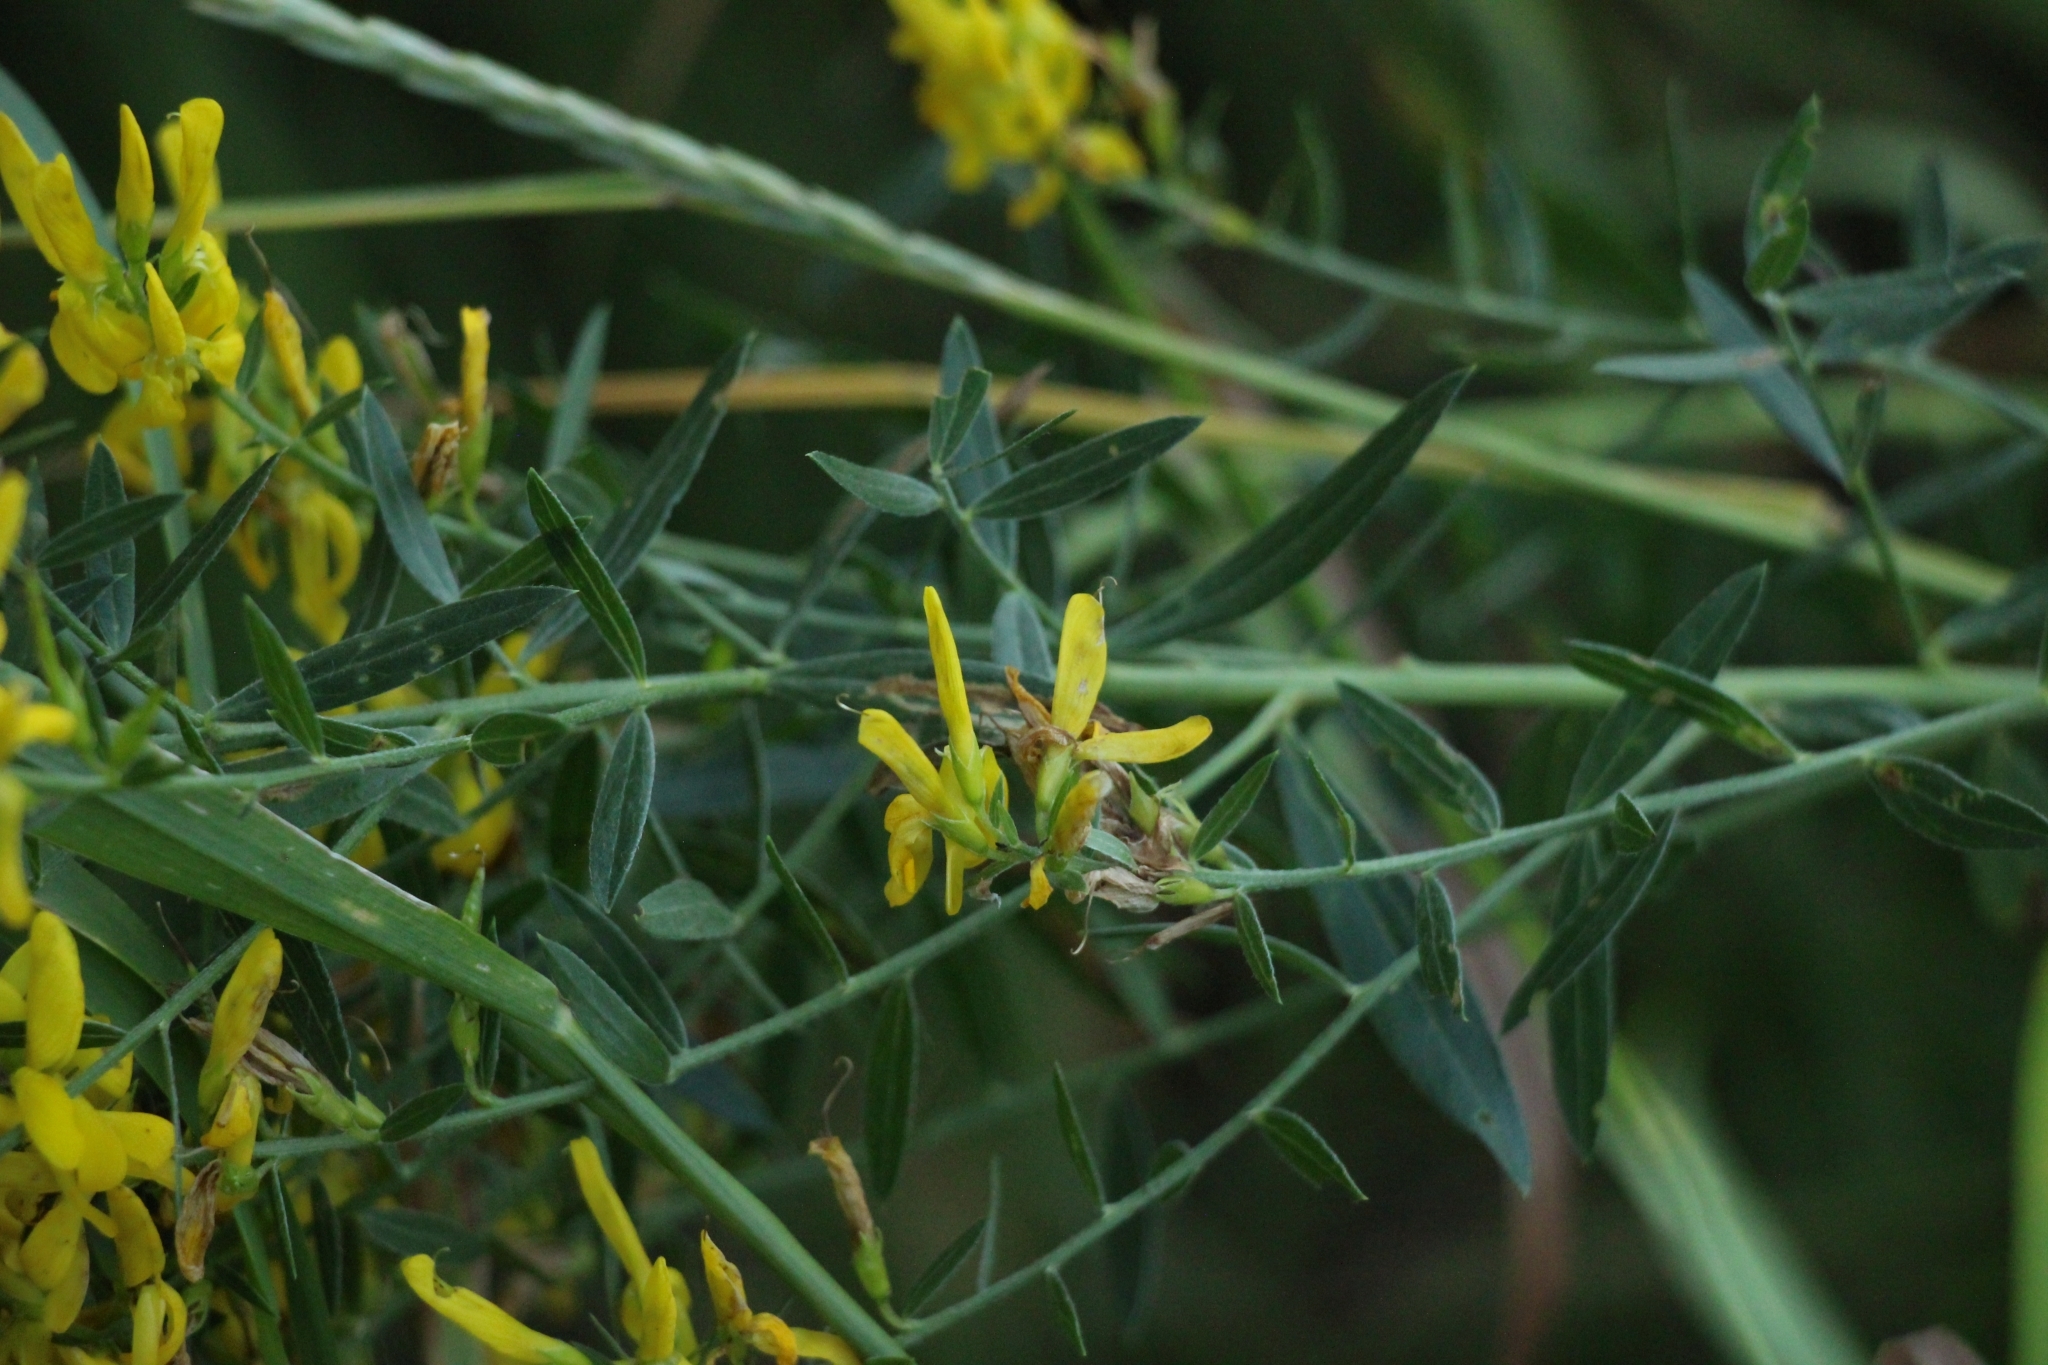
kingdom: Plantae
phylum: Tracheophyta
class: Magnoliopsida
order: Fabales
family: Fabaceae
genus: Genista
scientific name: Genista tinctoria
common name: Dyer's greenweed
